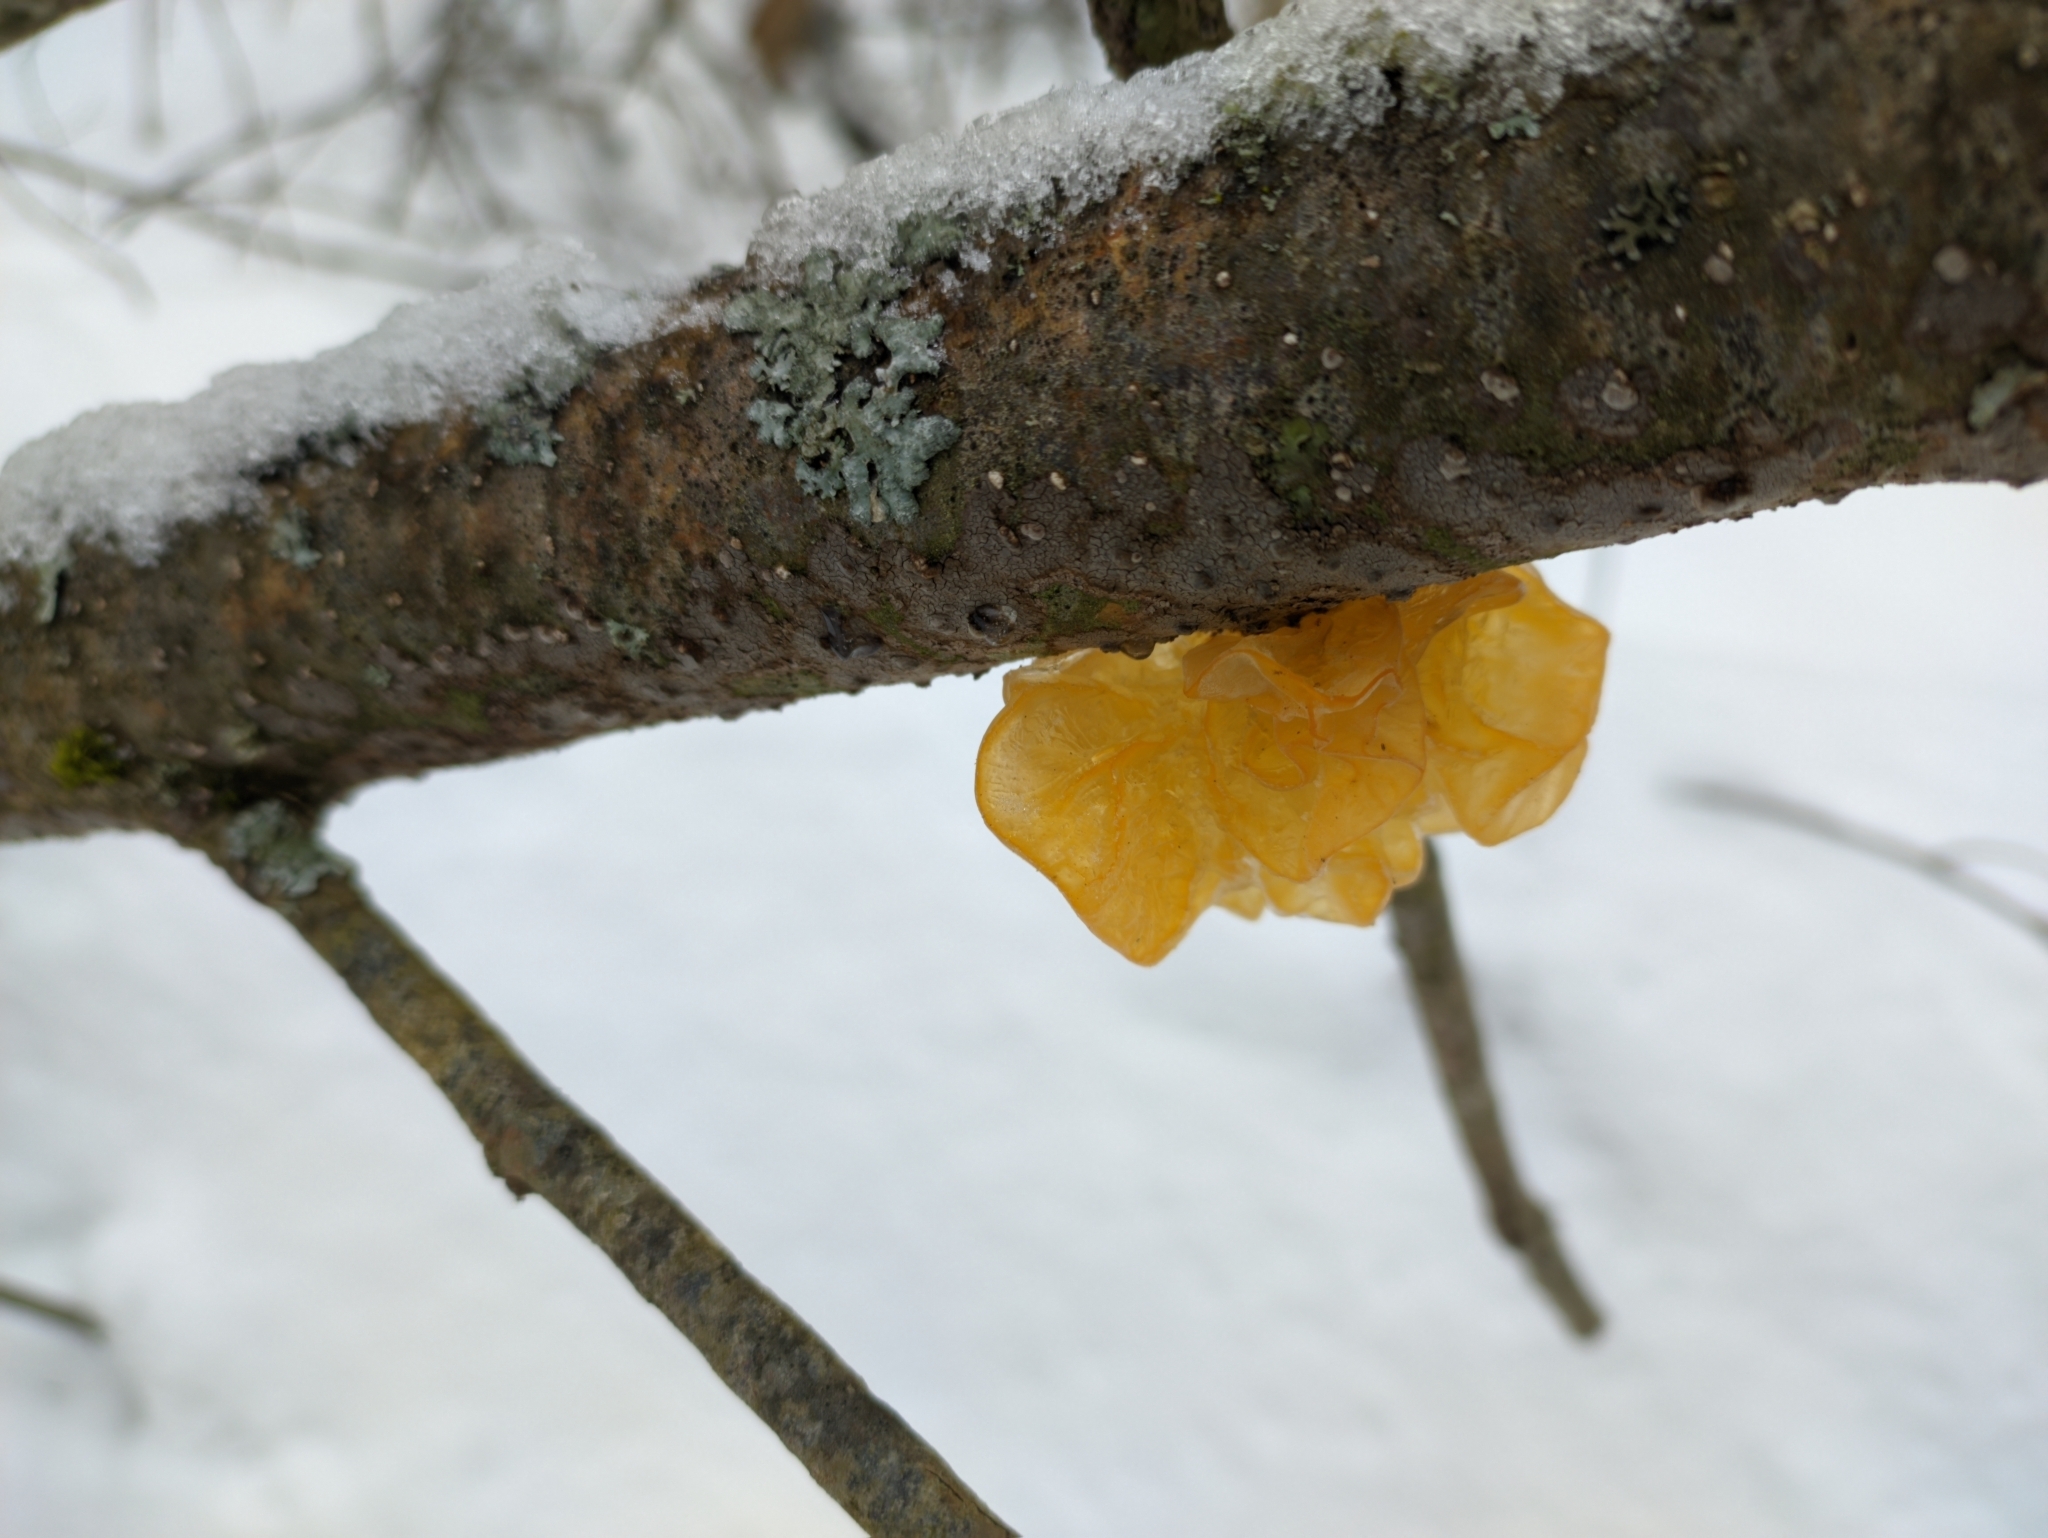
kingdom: Fungi
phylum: Basidiomycota
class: Tremellomycetes
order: Tremellales
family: Tremellaceae
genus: Tremella
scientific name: Tremella mesenterica
